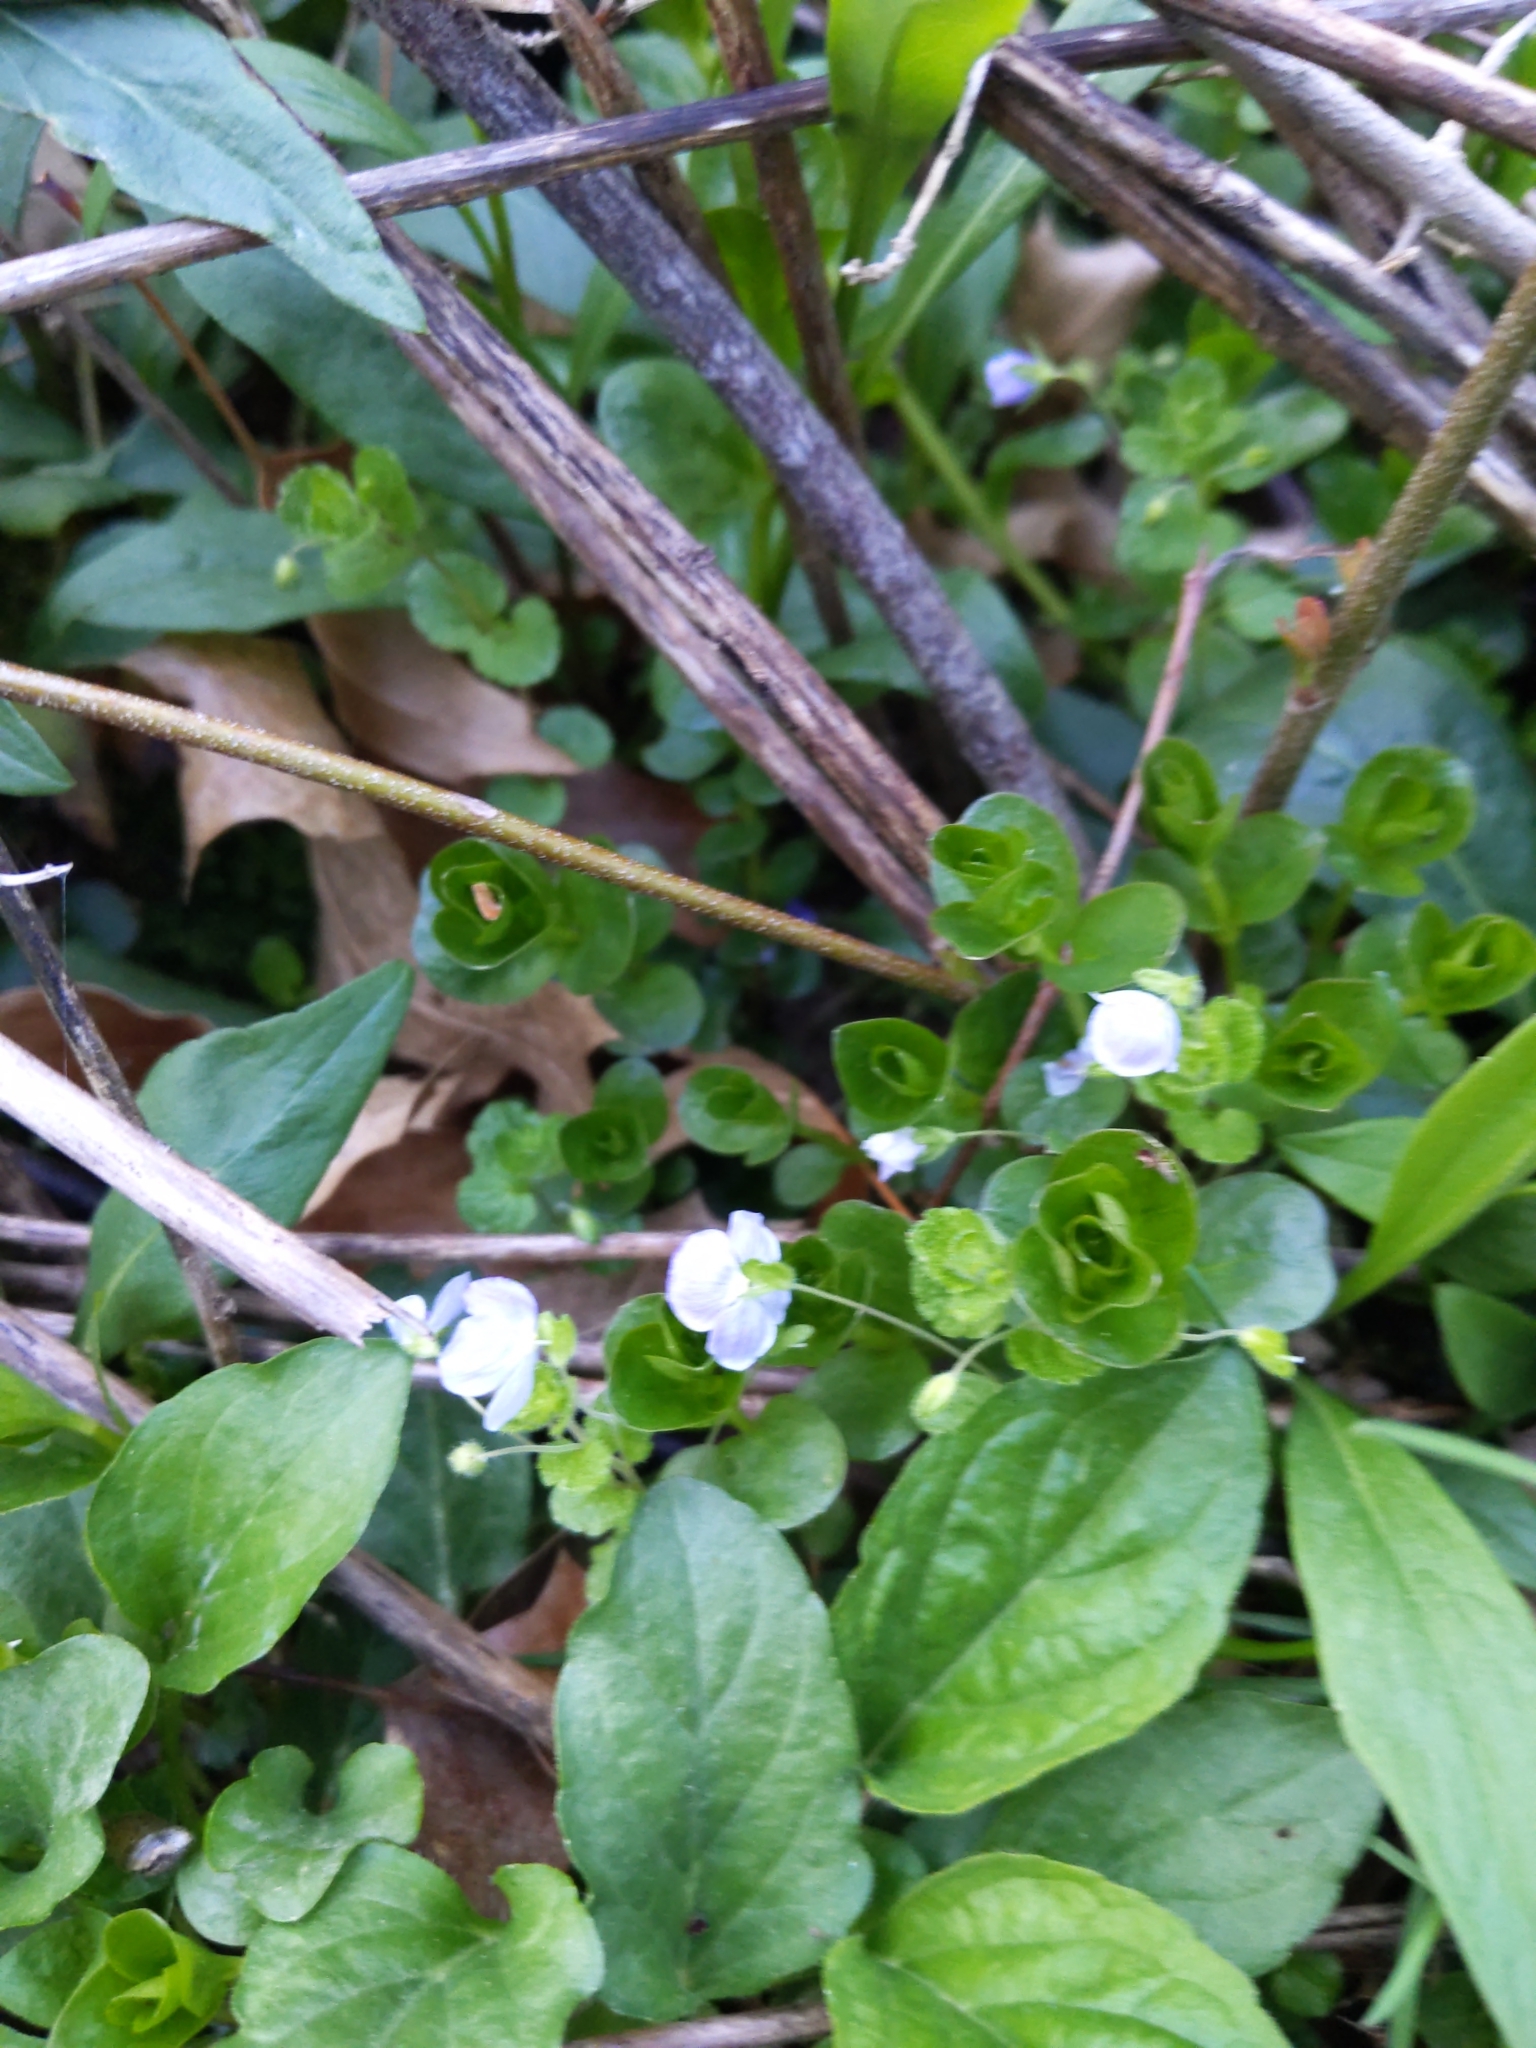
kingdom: Plantae
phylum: Tracheophyta
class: Magnoliopsida
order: Lamiales
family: Plantaginaceae
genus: Veronica
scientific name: Veronica filiformis
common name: Slender speedwell
